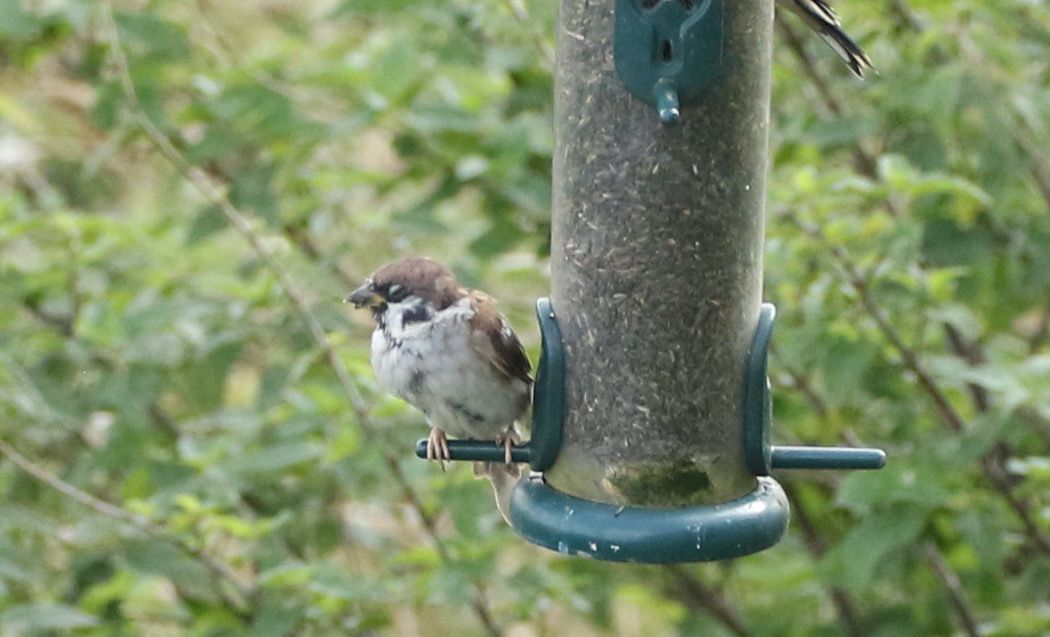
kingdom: Animalia
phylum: Chordata
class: Aves
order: Passeriformes
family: Passeridae
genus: Passer
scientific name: Passer montanus
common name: Eurasian tree sparrow
